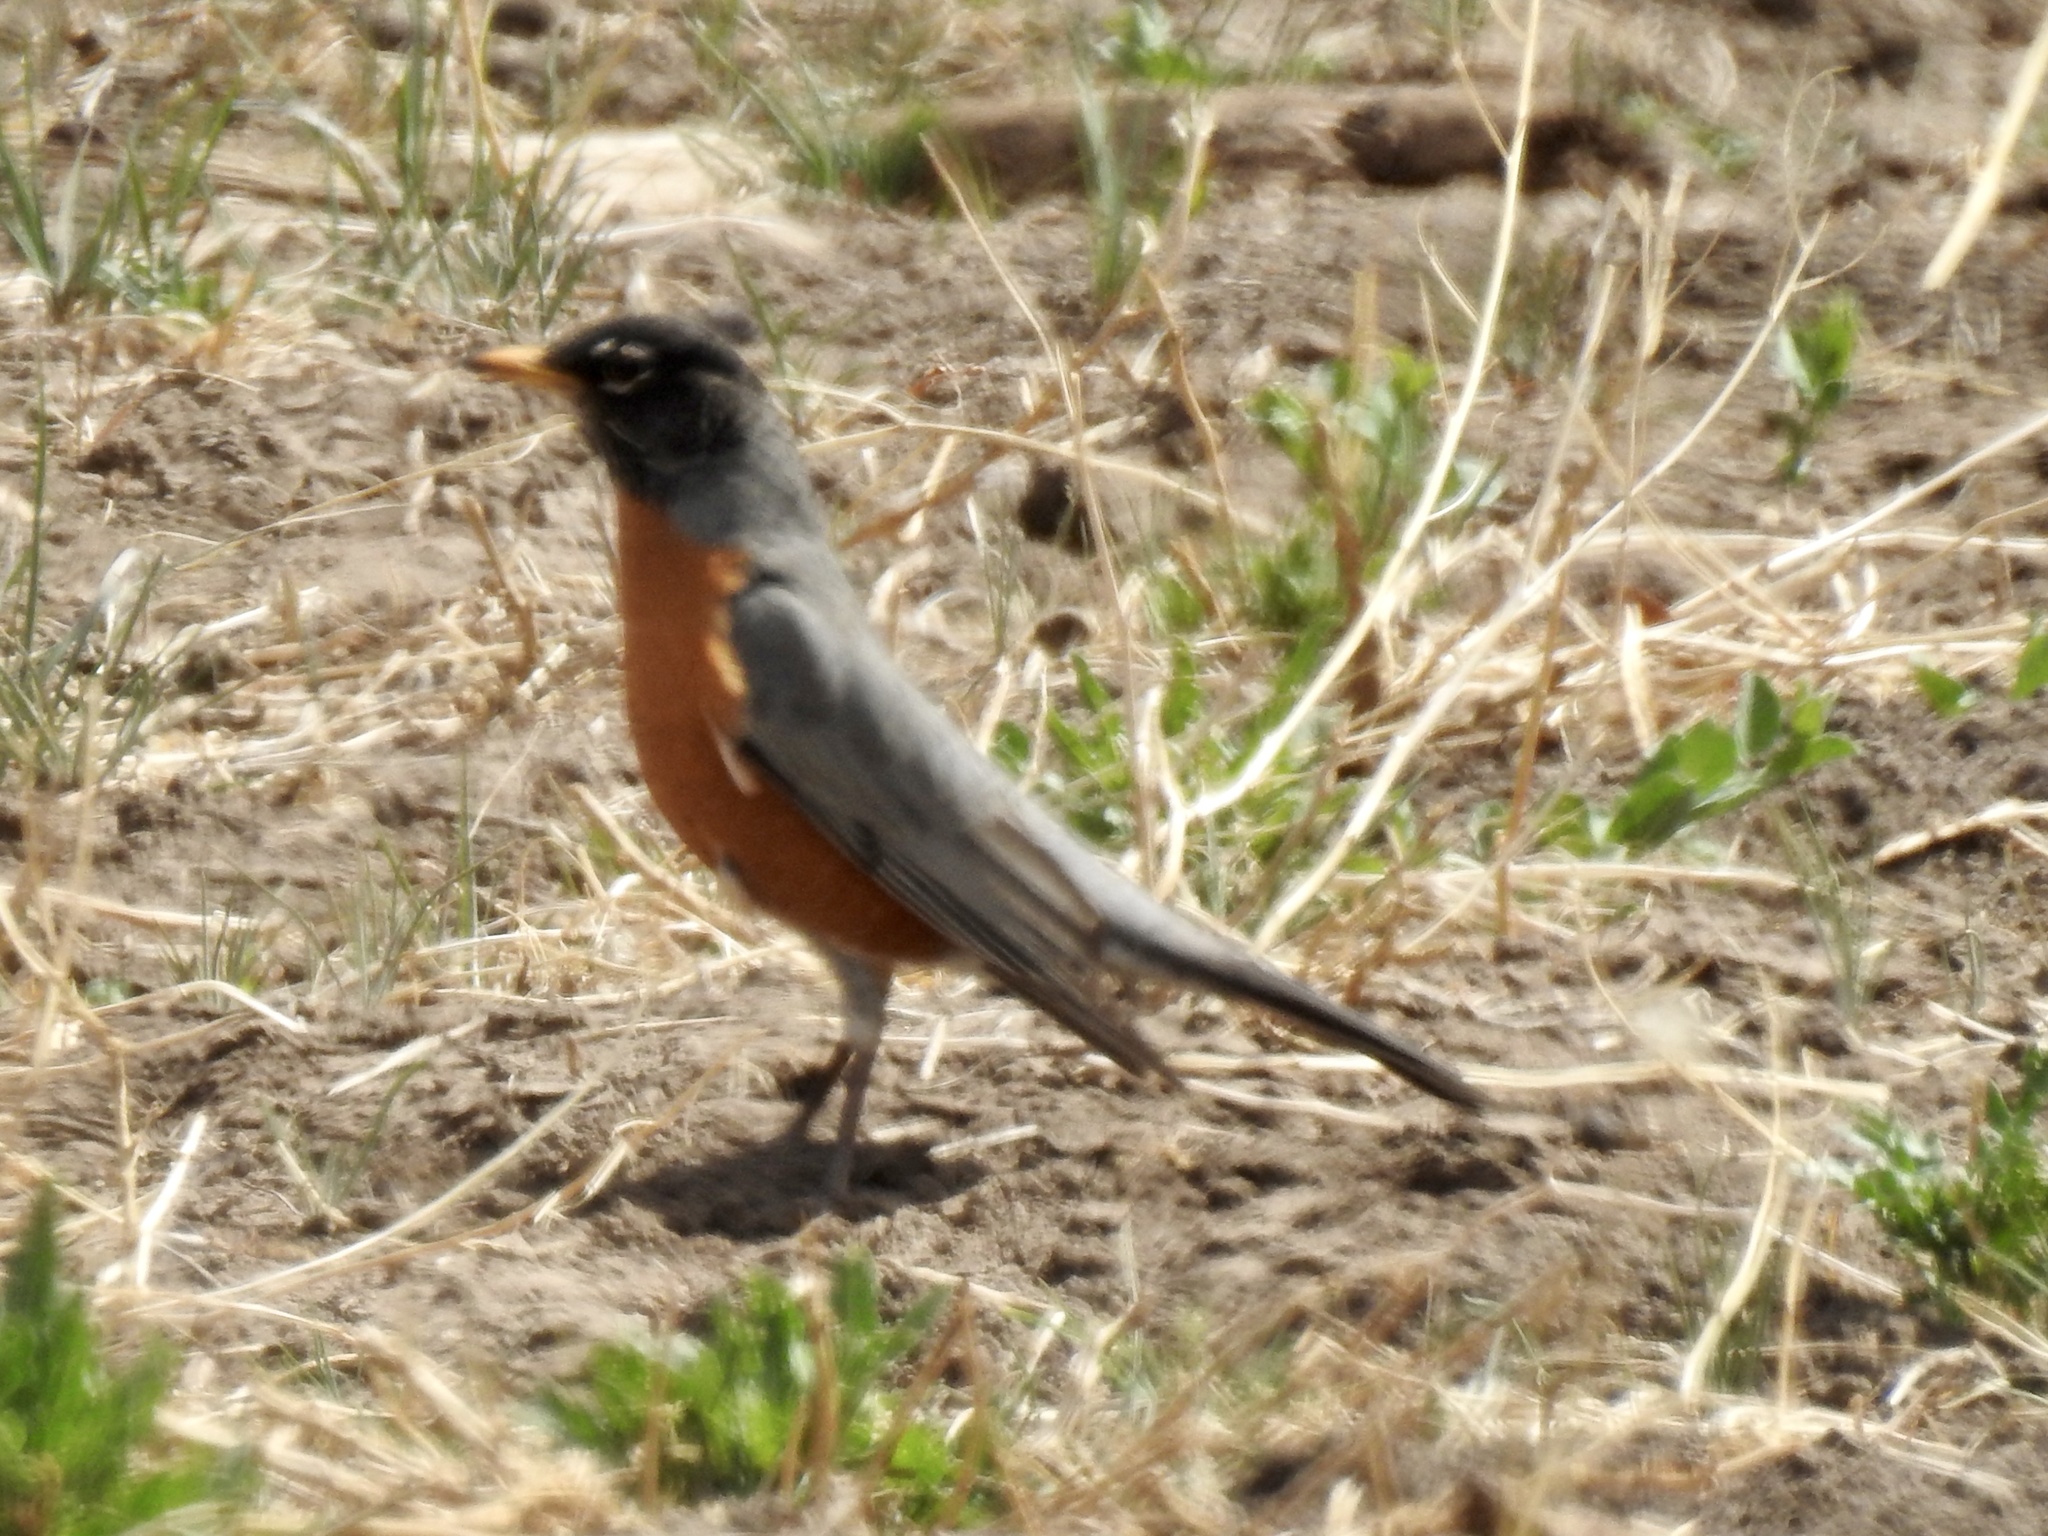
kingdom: Animalia
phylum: Chordata
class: Aves
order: Passeriformes
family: Turdidae
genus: Turdus
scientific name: Turdus migratorius
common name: American robin
